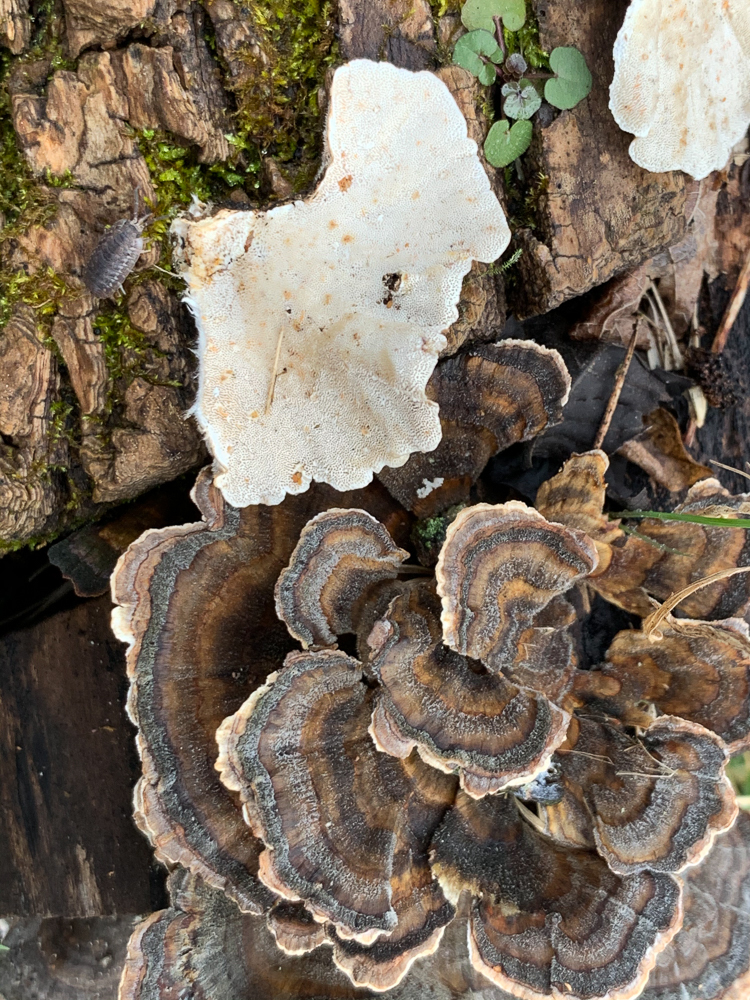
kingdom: Fungi
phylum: Basidiomycota
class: Agaricomycetes
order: Polyporales
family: Polyporaceae
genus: Trametes
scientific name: Trametes versicolor
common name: Turkeytail
